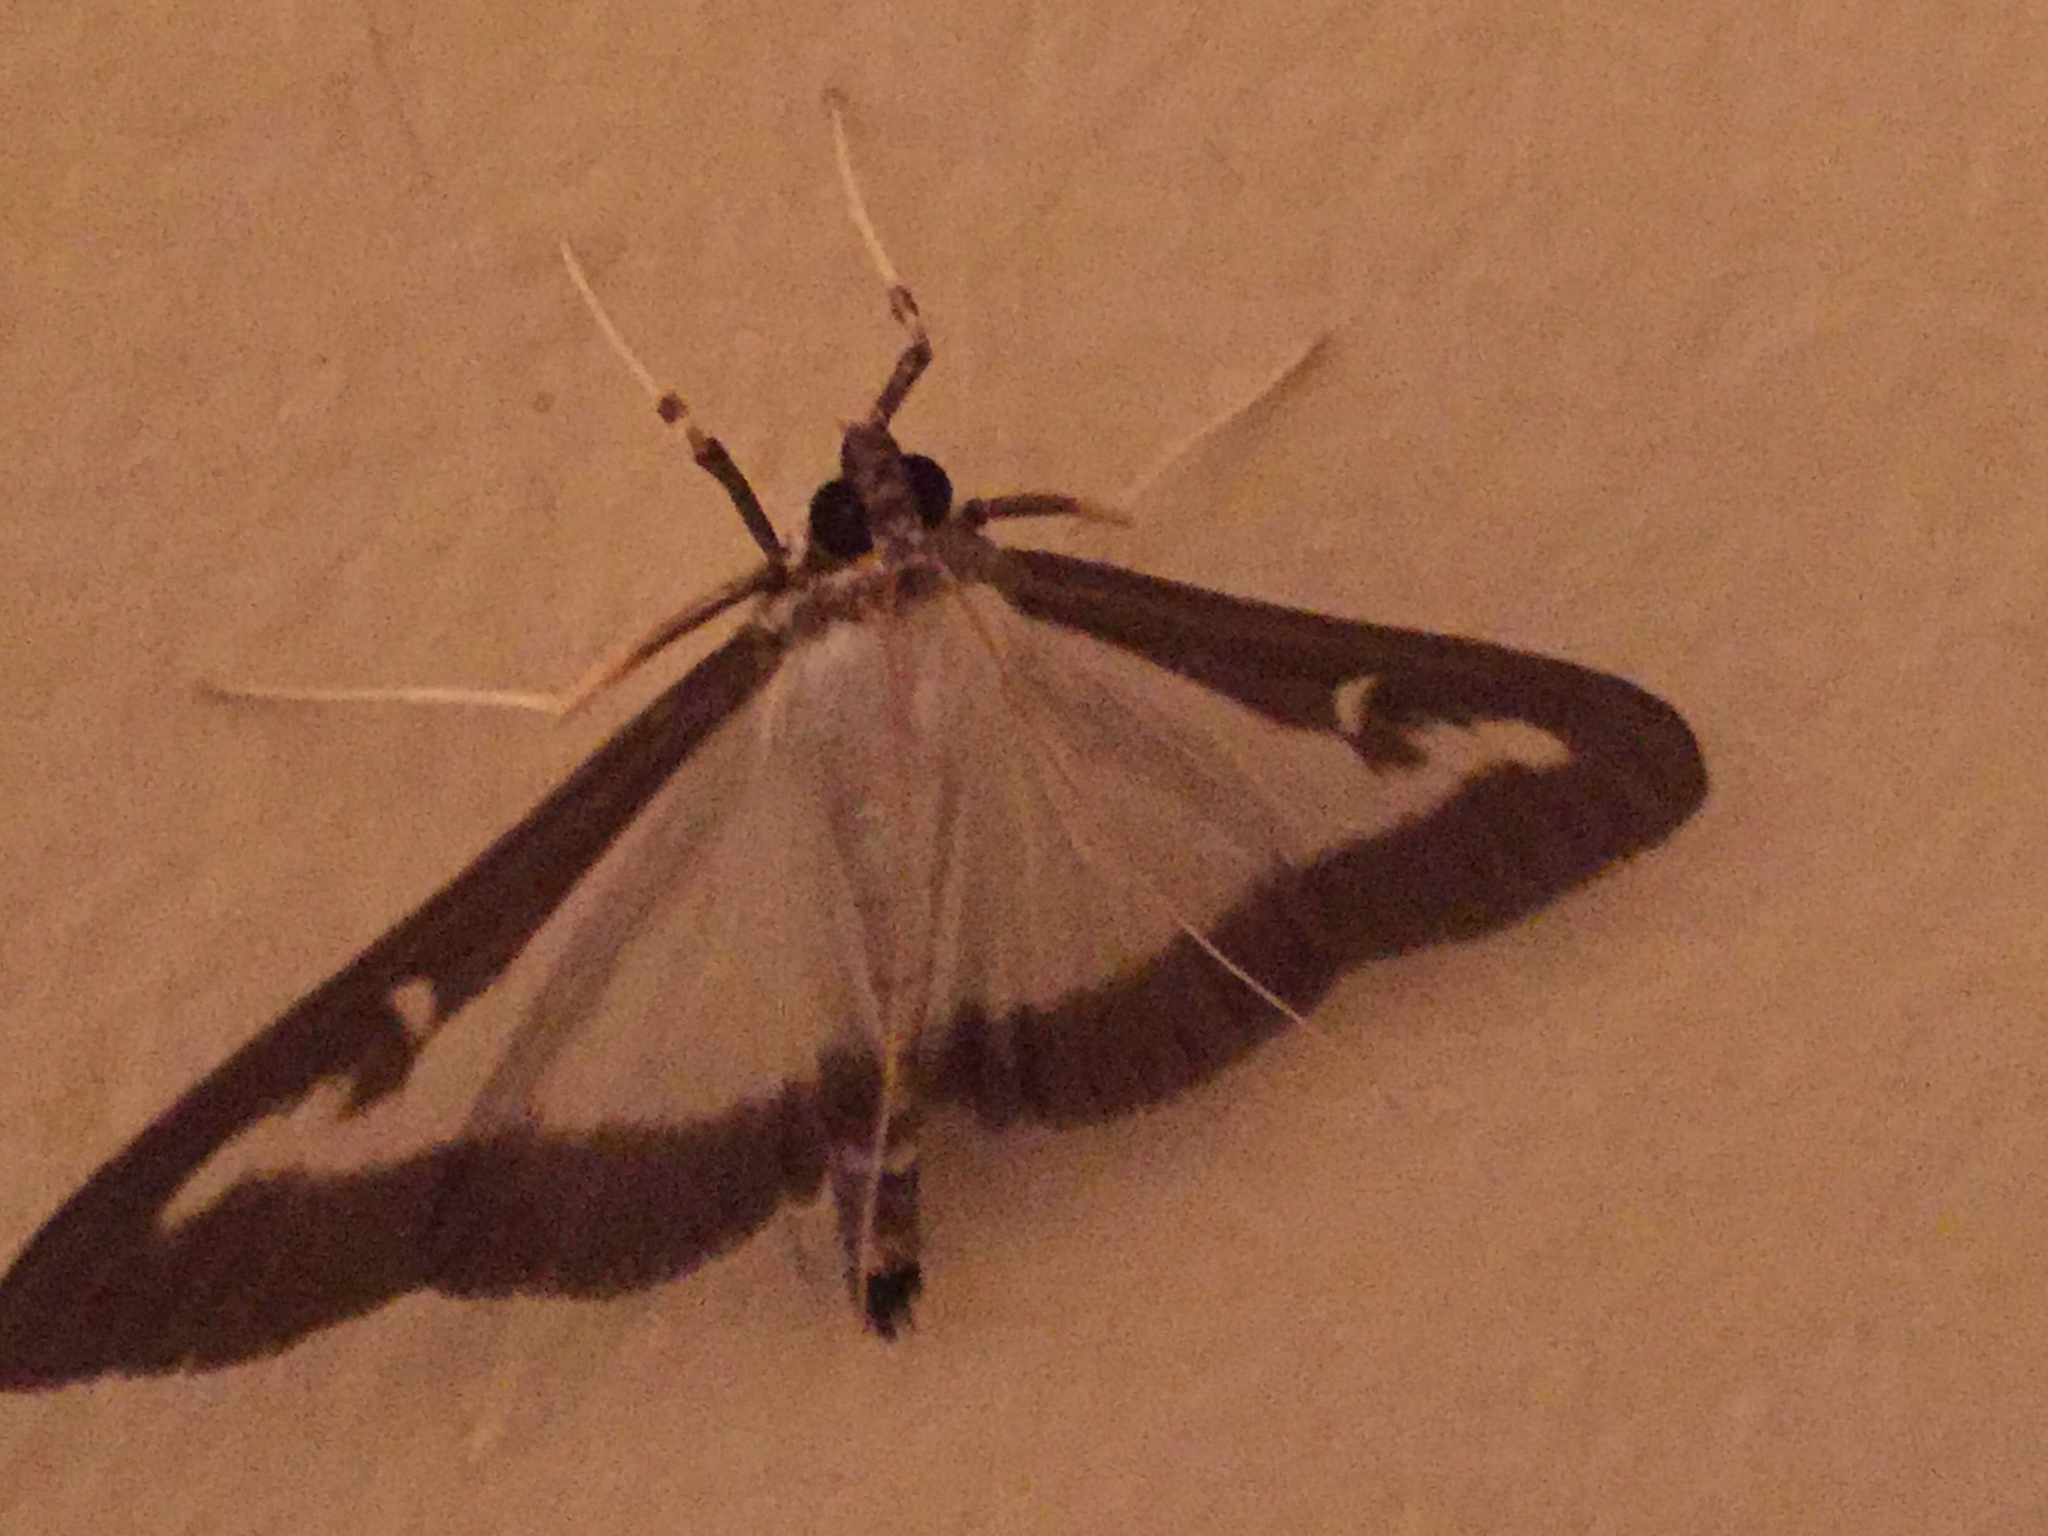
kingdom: Animalia
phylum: Arthropoda
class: Insecta
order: Lepidoptera
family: Crambidae
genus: Cydalima
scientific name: Cydalima perspectalis
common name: Box tree moth
